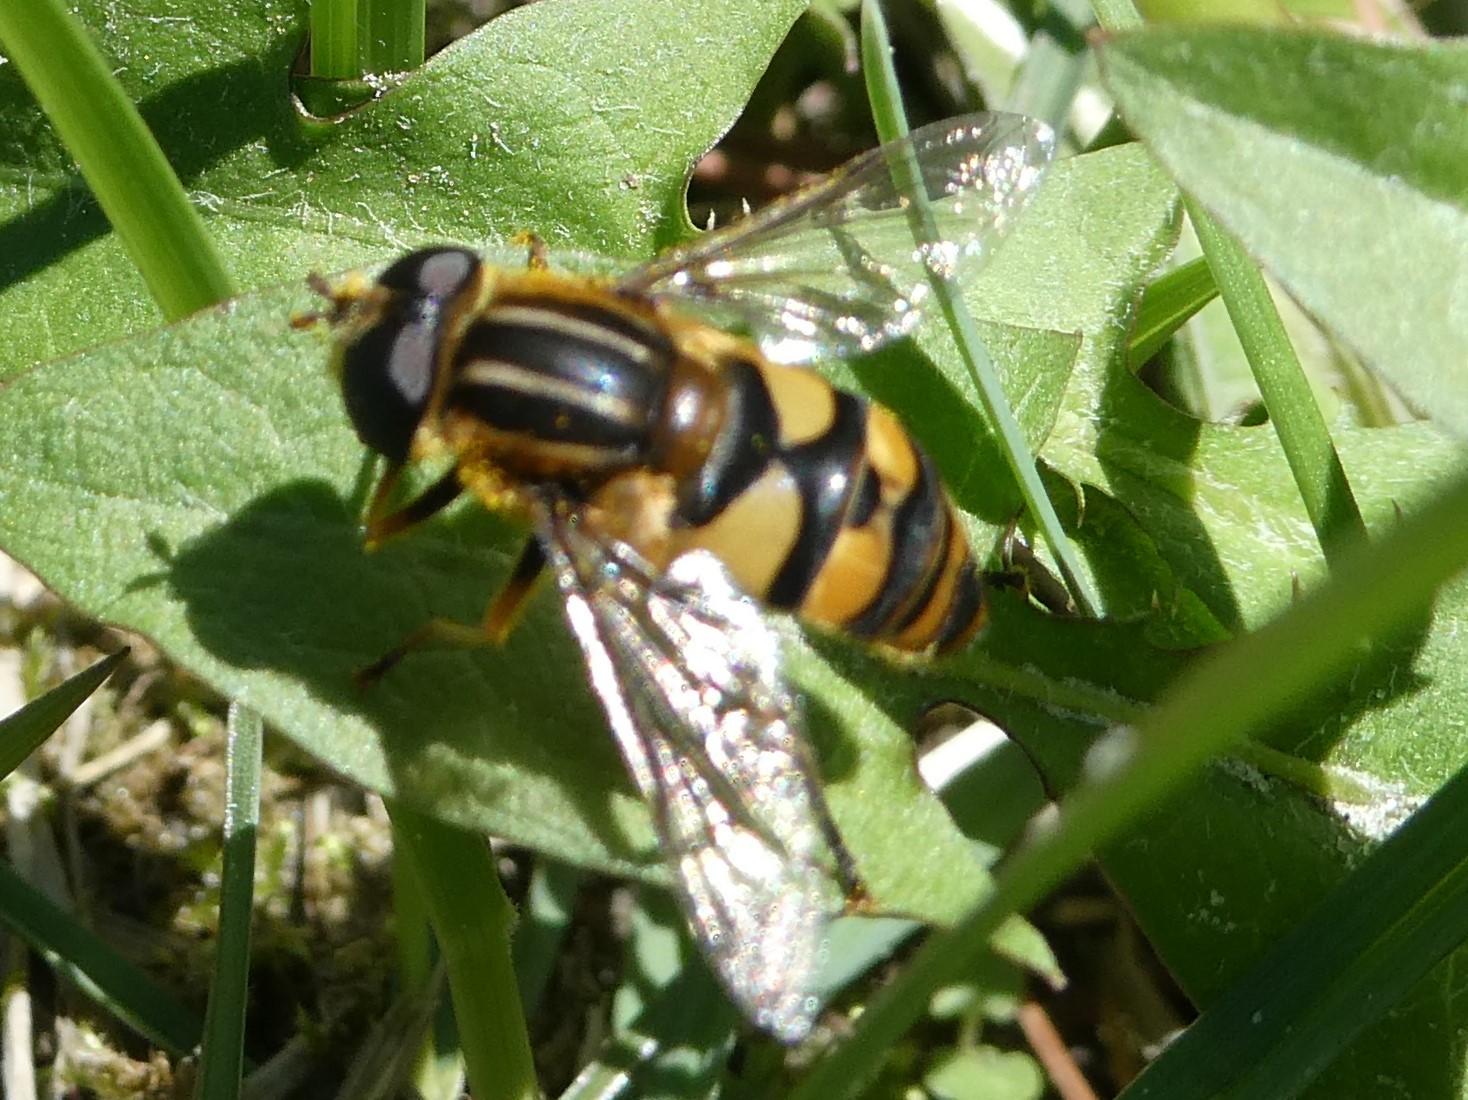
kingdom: Animalia
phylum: Arthropoda
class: Insecta
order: Diptera
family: Syrphidae
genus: Helophilus
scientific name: Helophilus fasciatus
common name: Narrow-headed marsh fly
